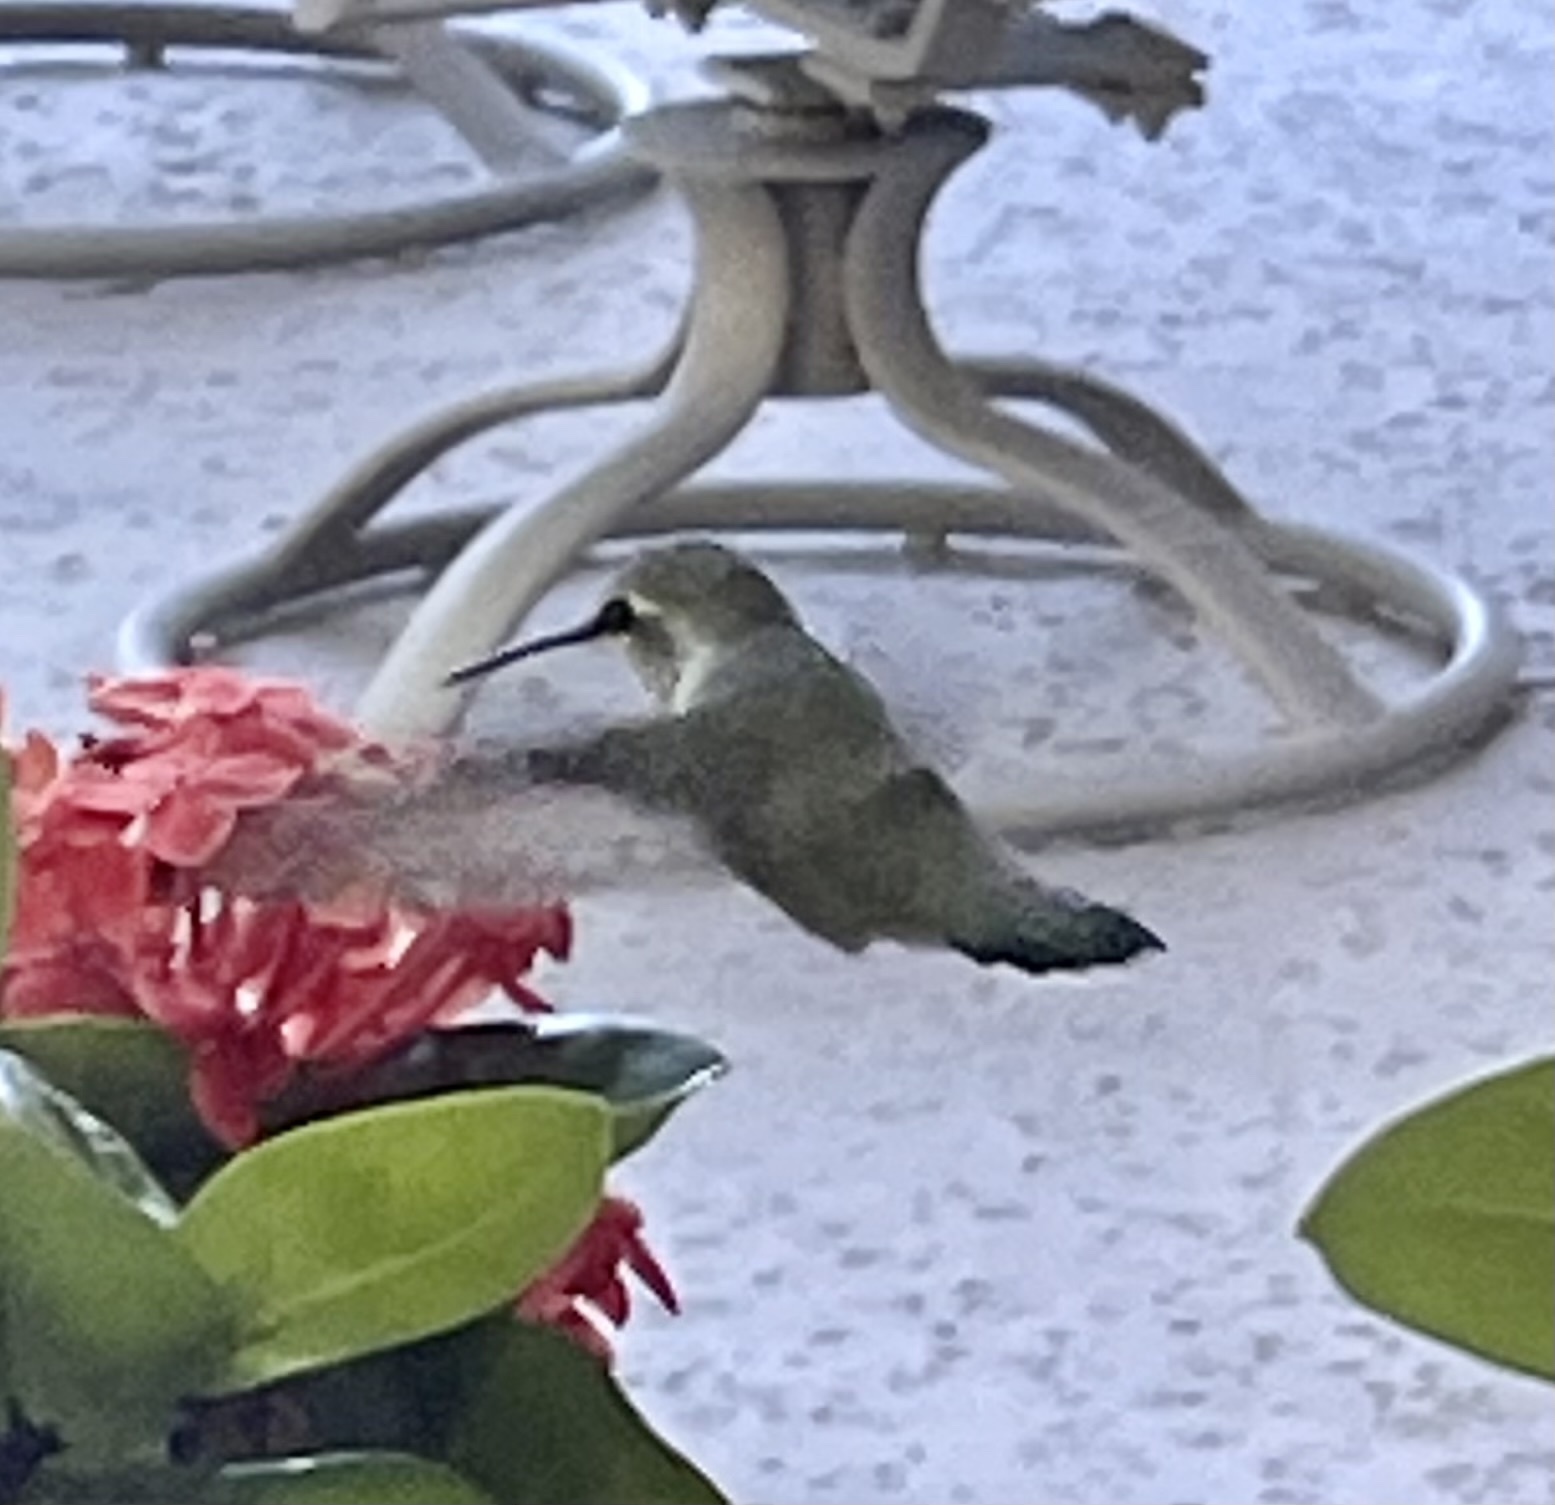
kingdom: Animalia
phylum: Chordata
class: Aves
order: Apodiformes
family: Trochilidae
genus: Calypte
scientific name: Calypte costae
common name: Costa's hummingbird
